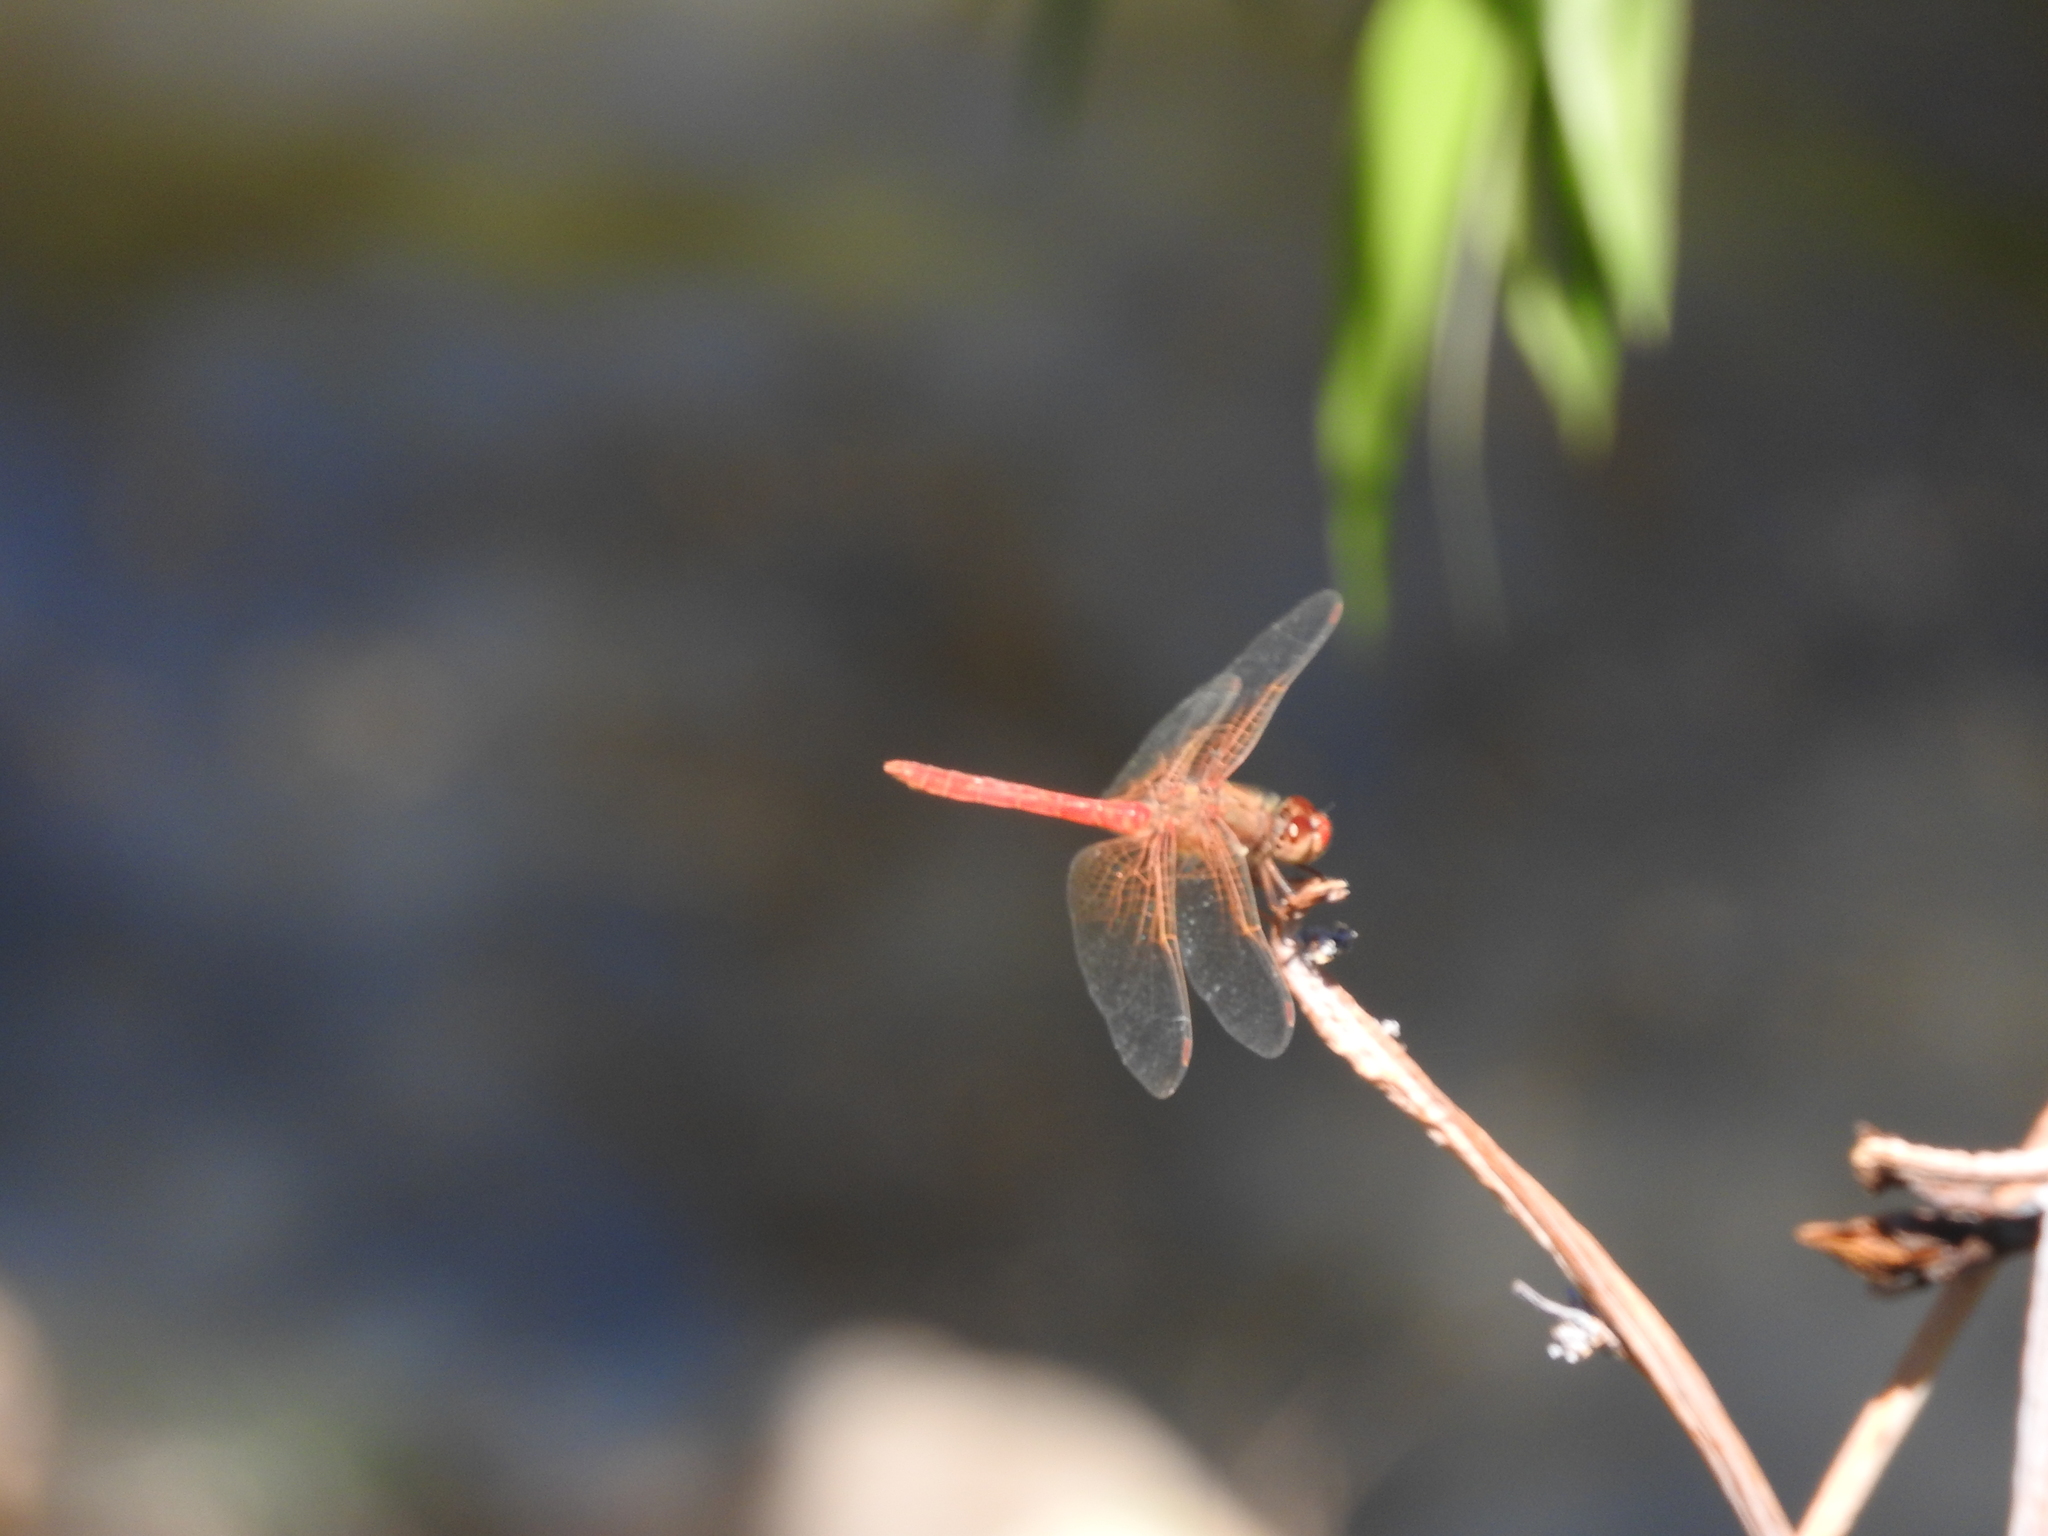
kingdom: Animalia
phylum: Arthropoda
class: Insecta
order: Odonata
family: Libellulidae
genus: Sympetrum
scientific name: Sympetrum illotum
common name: Cardinal meadowhawk
